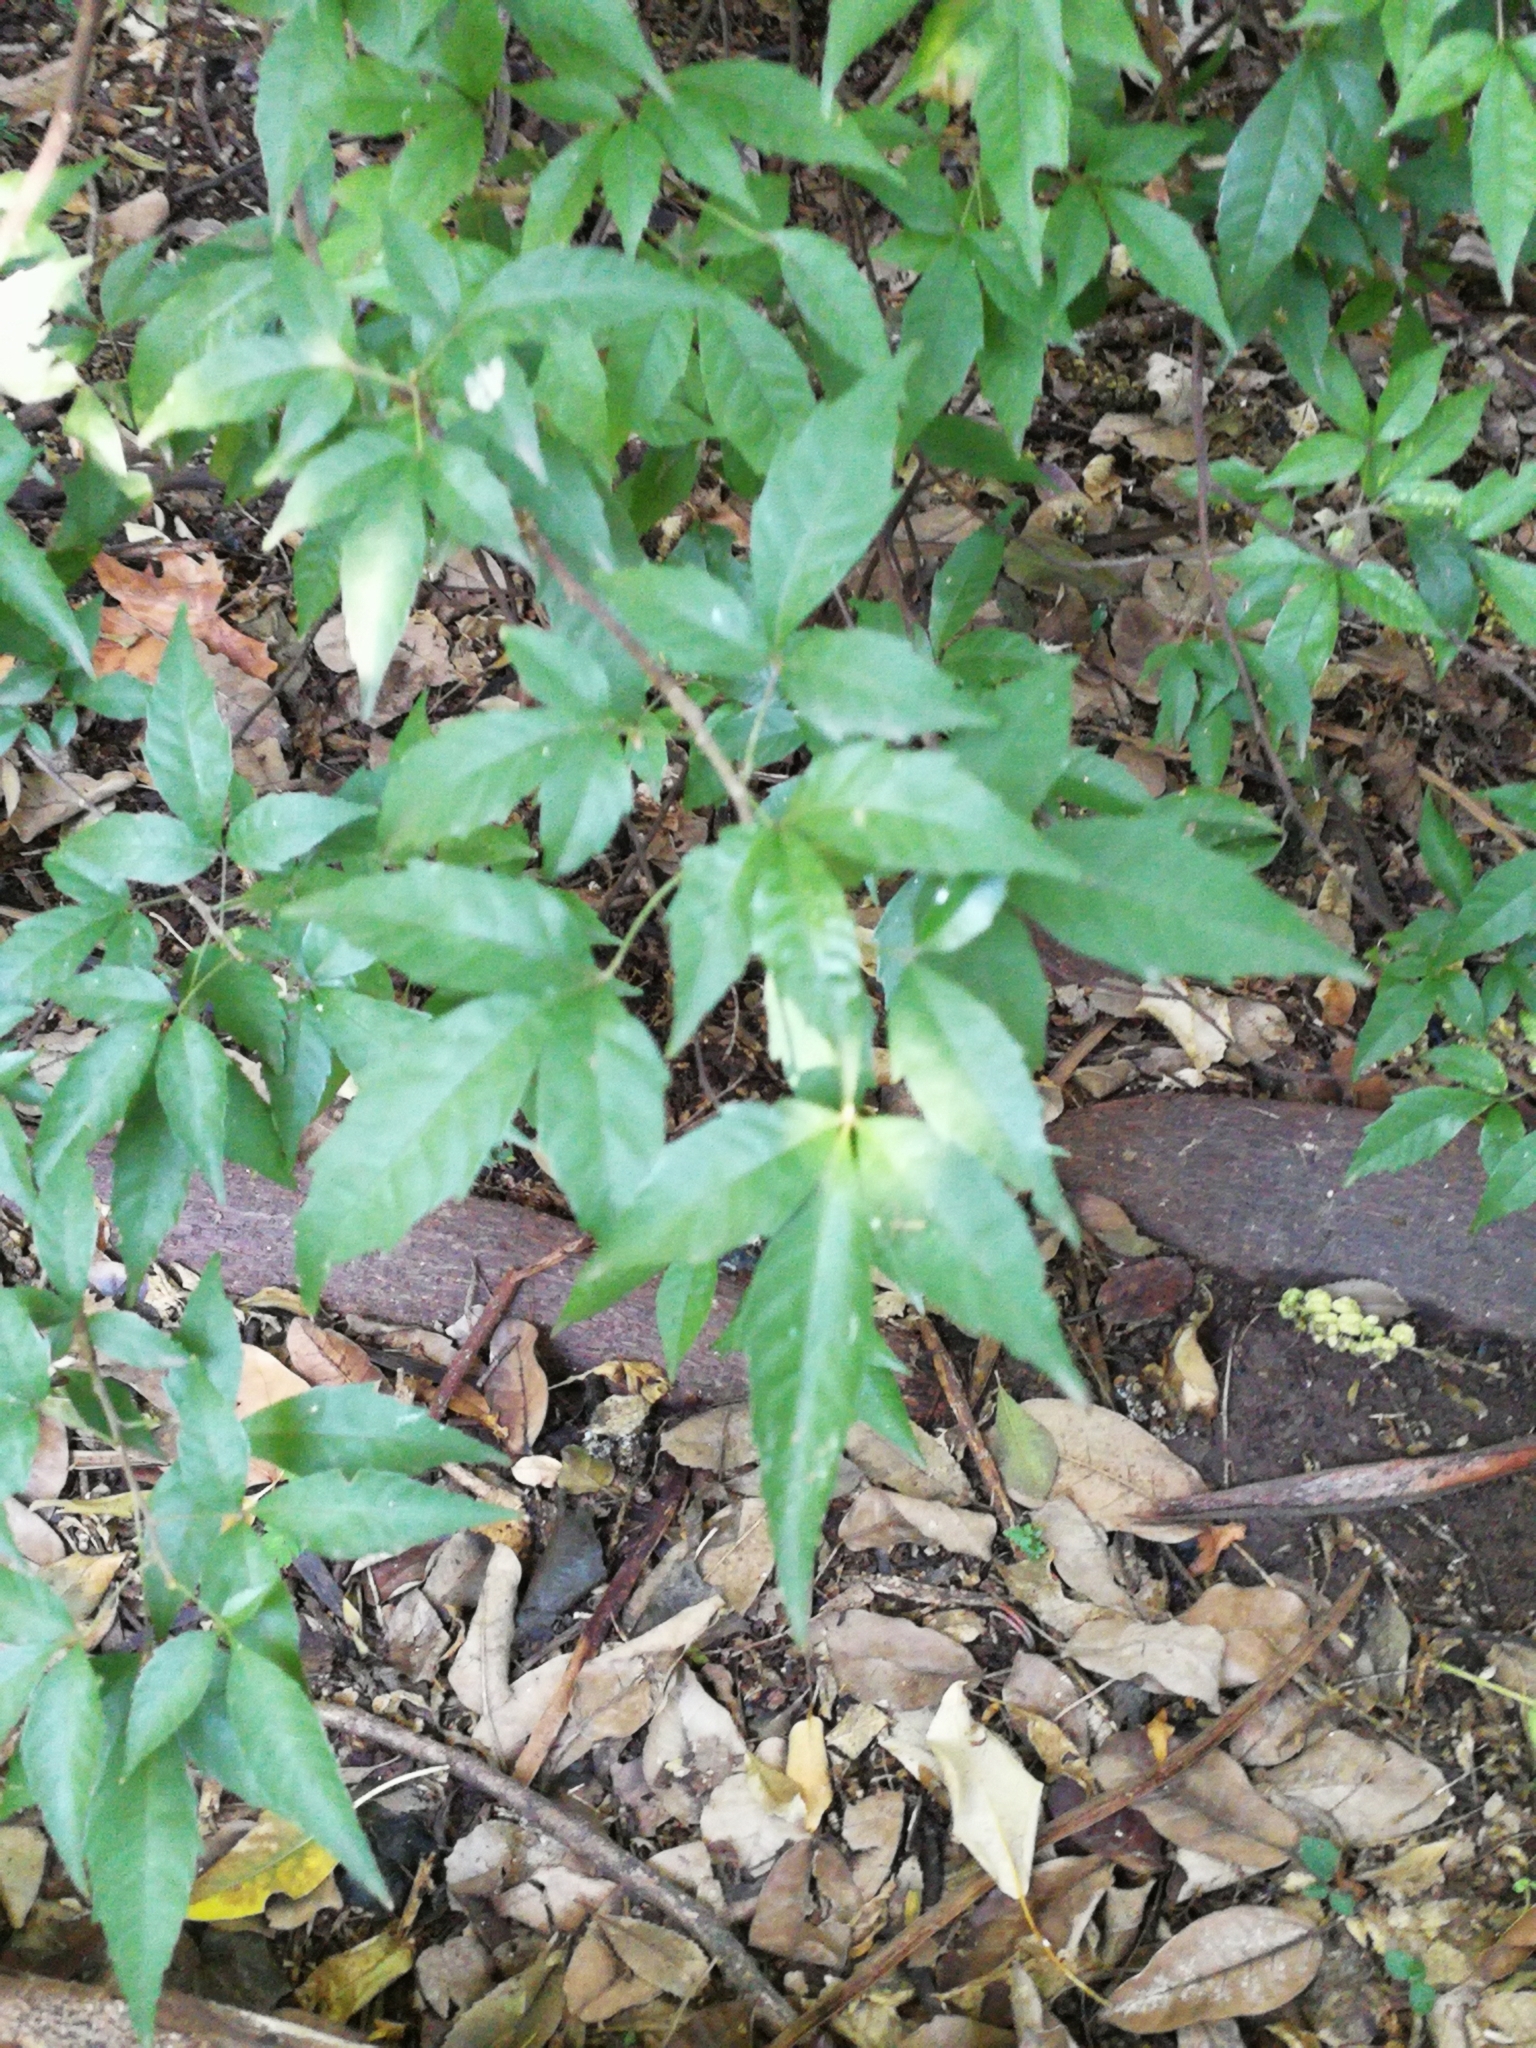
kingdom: Plantae
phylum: Tracheophyta
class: Magnoliopsida
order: Sapindales
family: Sapindaceae
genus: Allophylus
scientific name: Allophylus edulis
